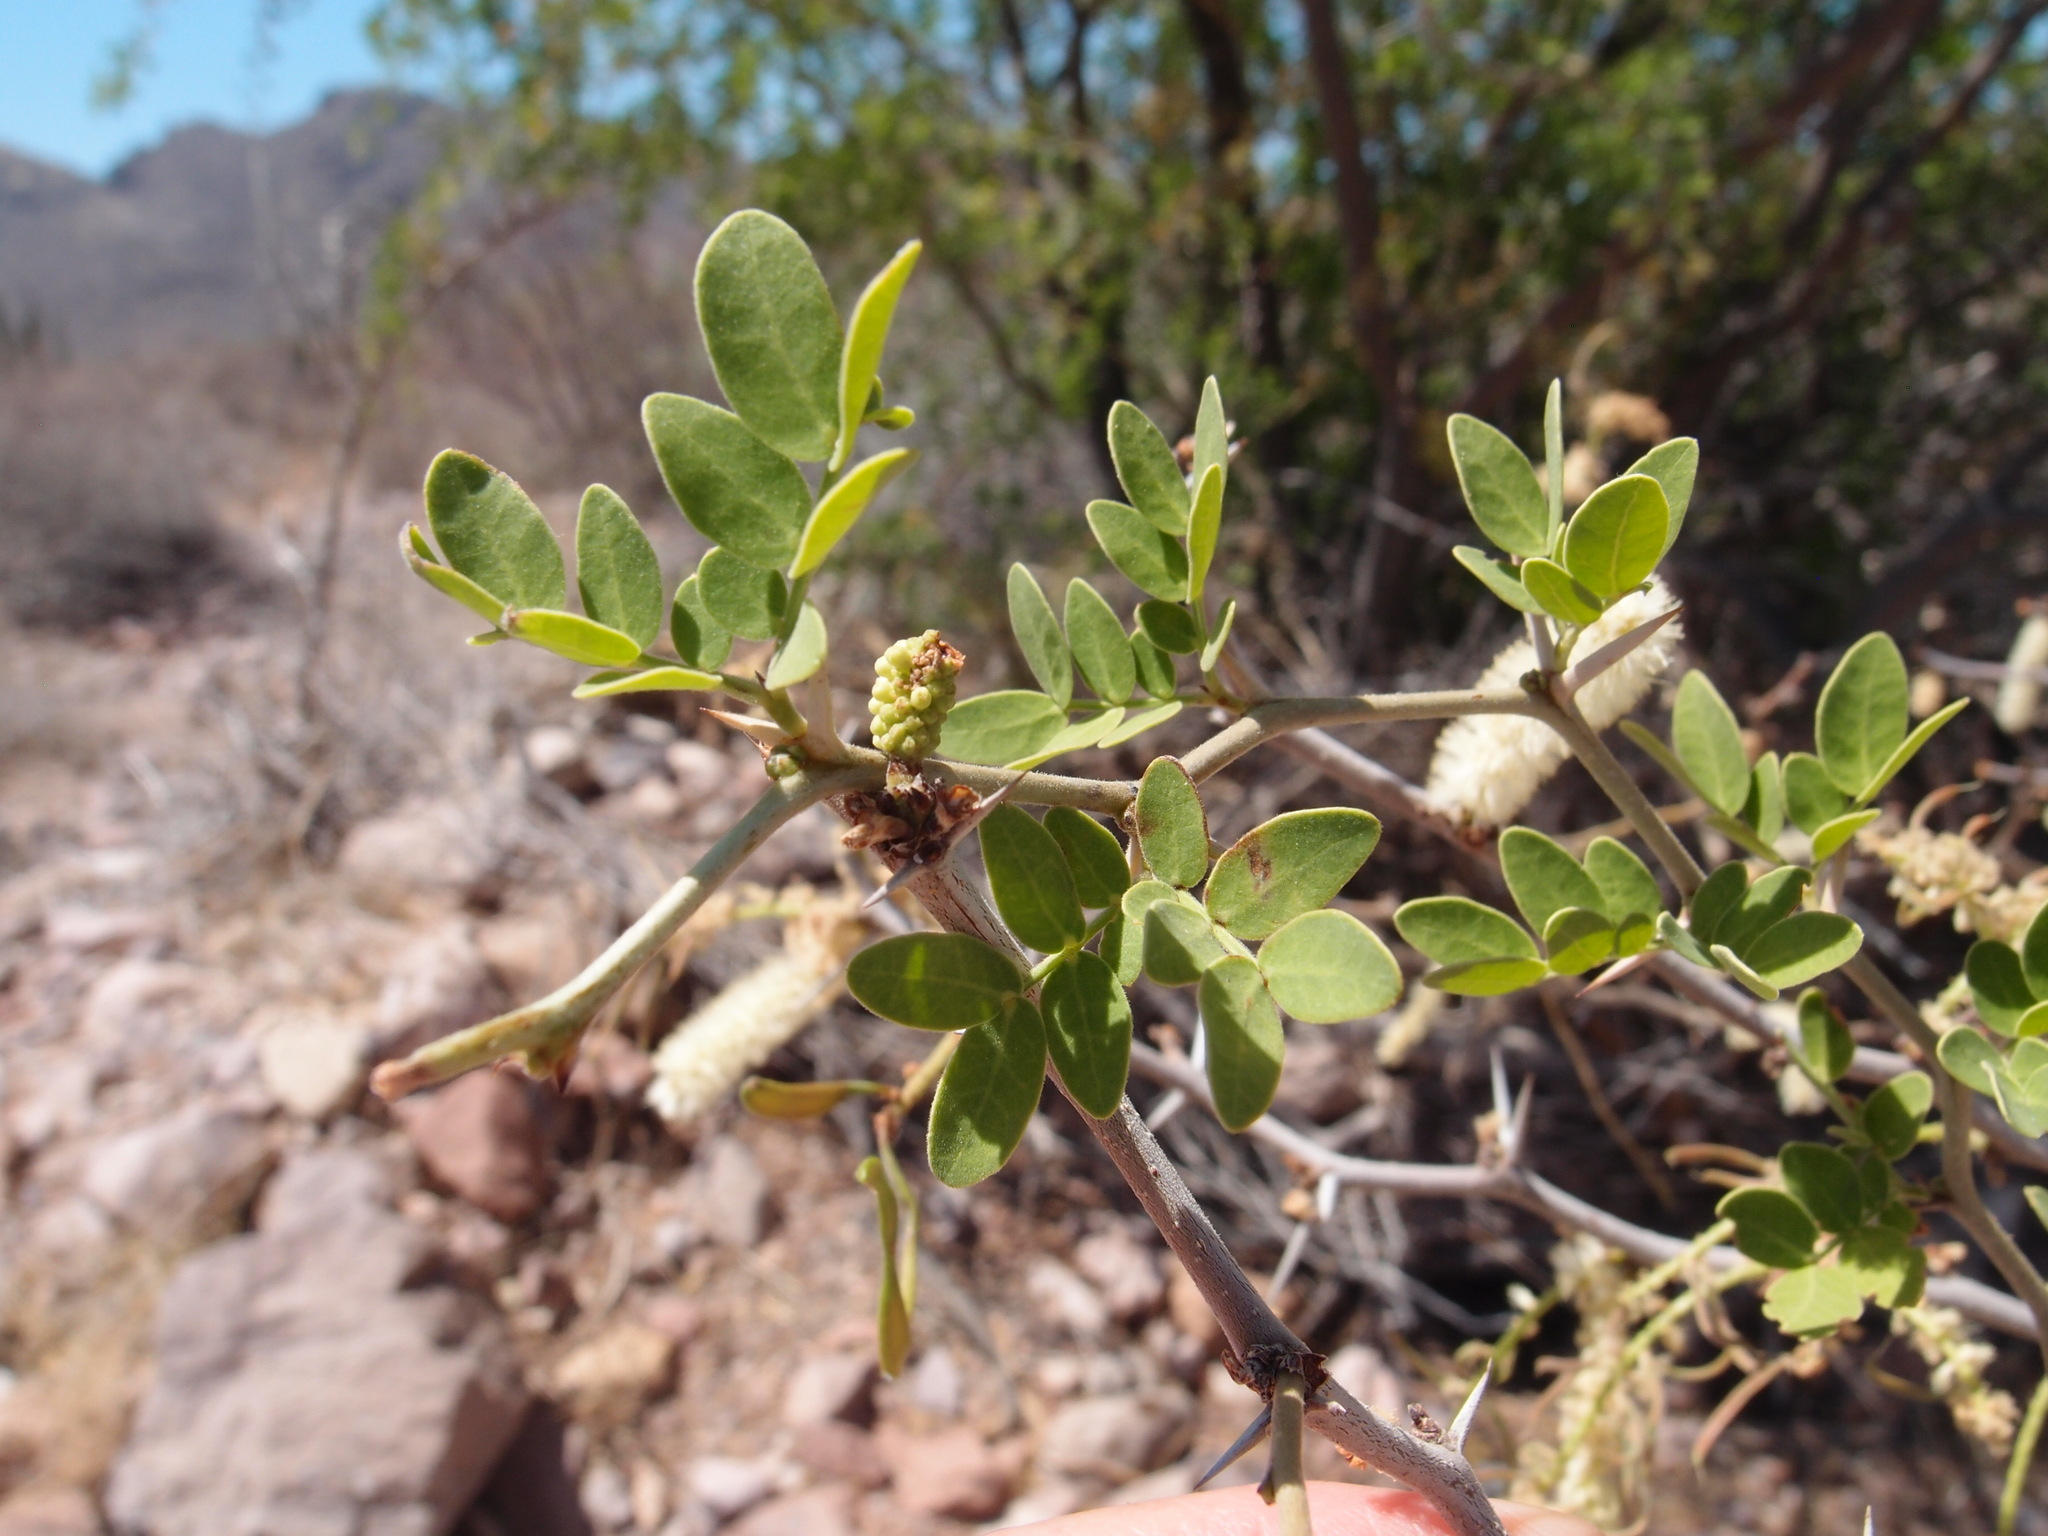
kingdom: Plantae
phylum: Tracheophyta
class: Magnoliopsida
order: Fabales
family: Fabaceae
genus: Vachellia
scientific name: Vachellia californica
